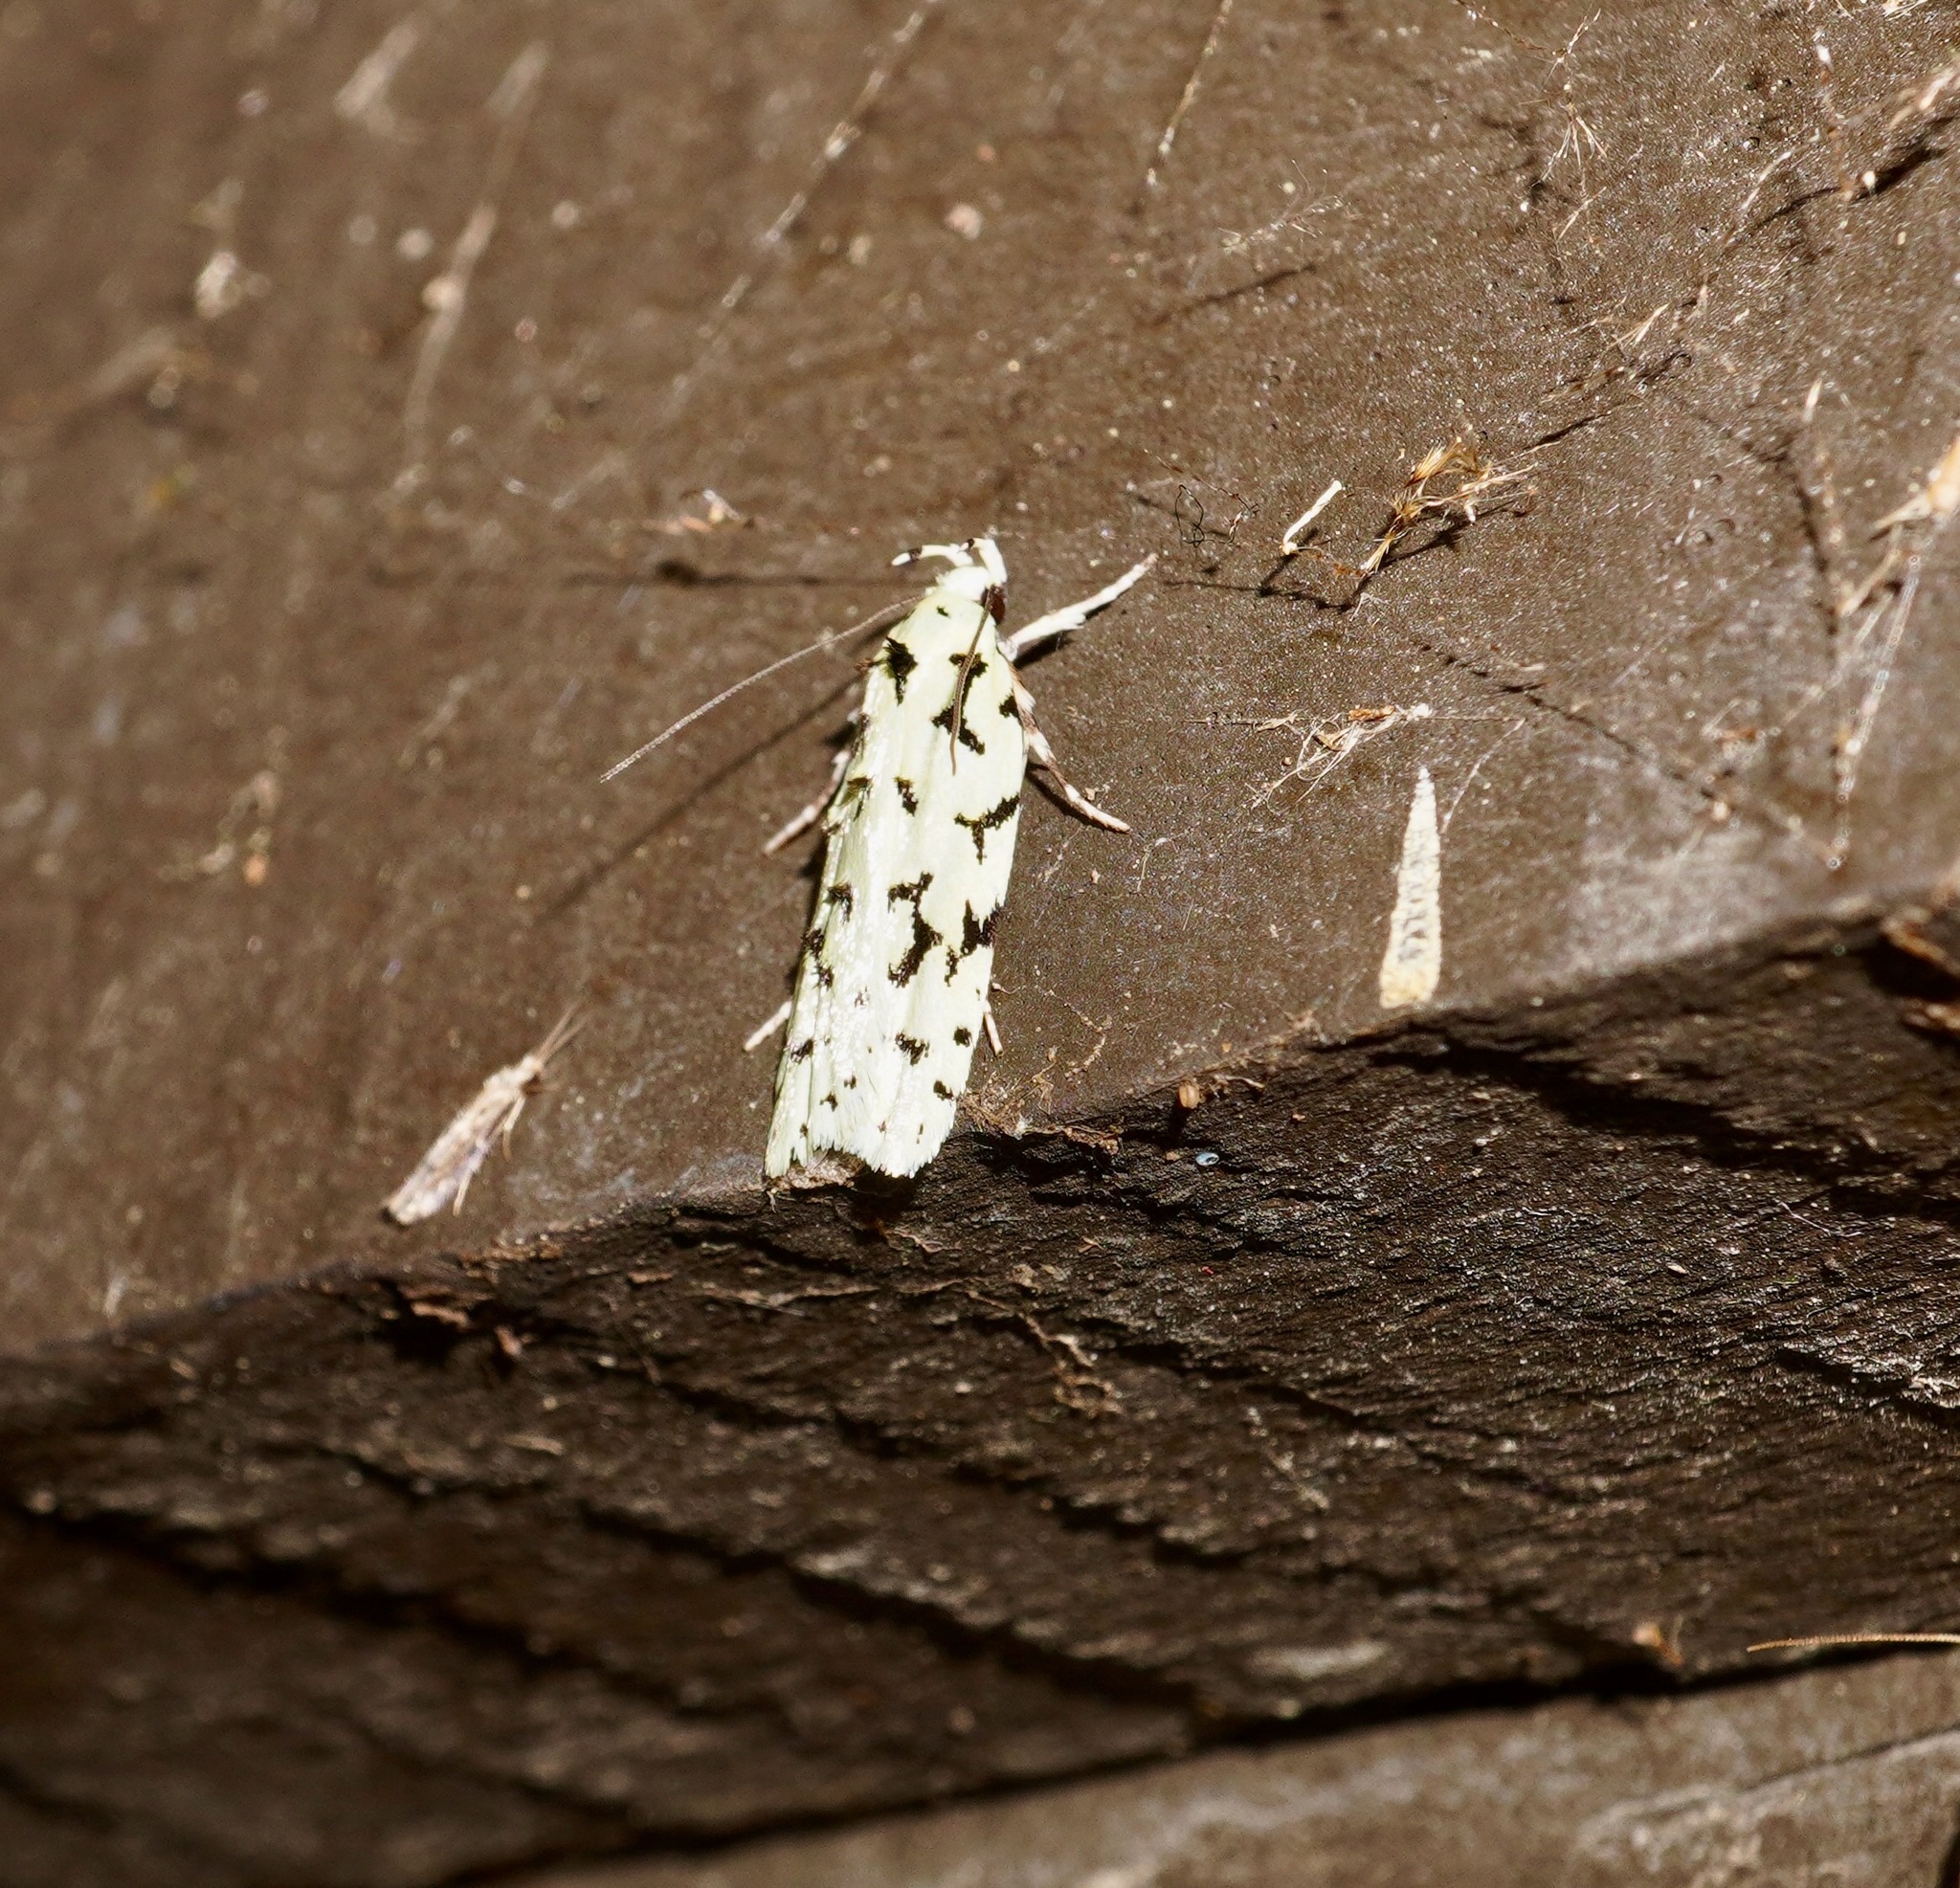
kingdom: Animalia
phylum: Arthropoda
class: Insecta
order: Lepidoptera
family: Oecophoridae
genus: Izatha
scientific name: Izatha huttoni
